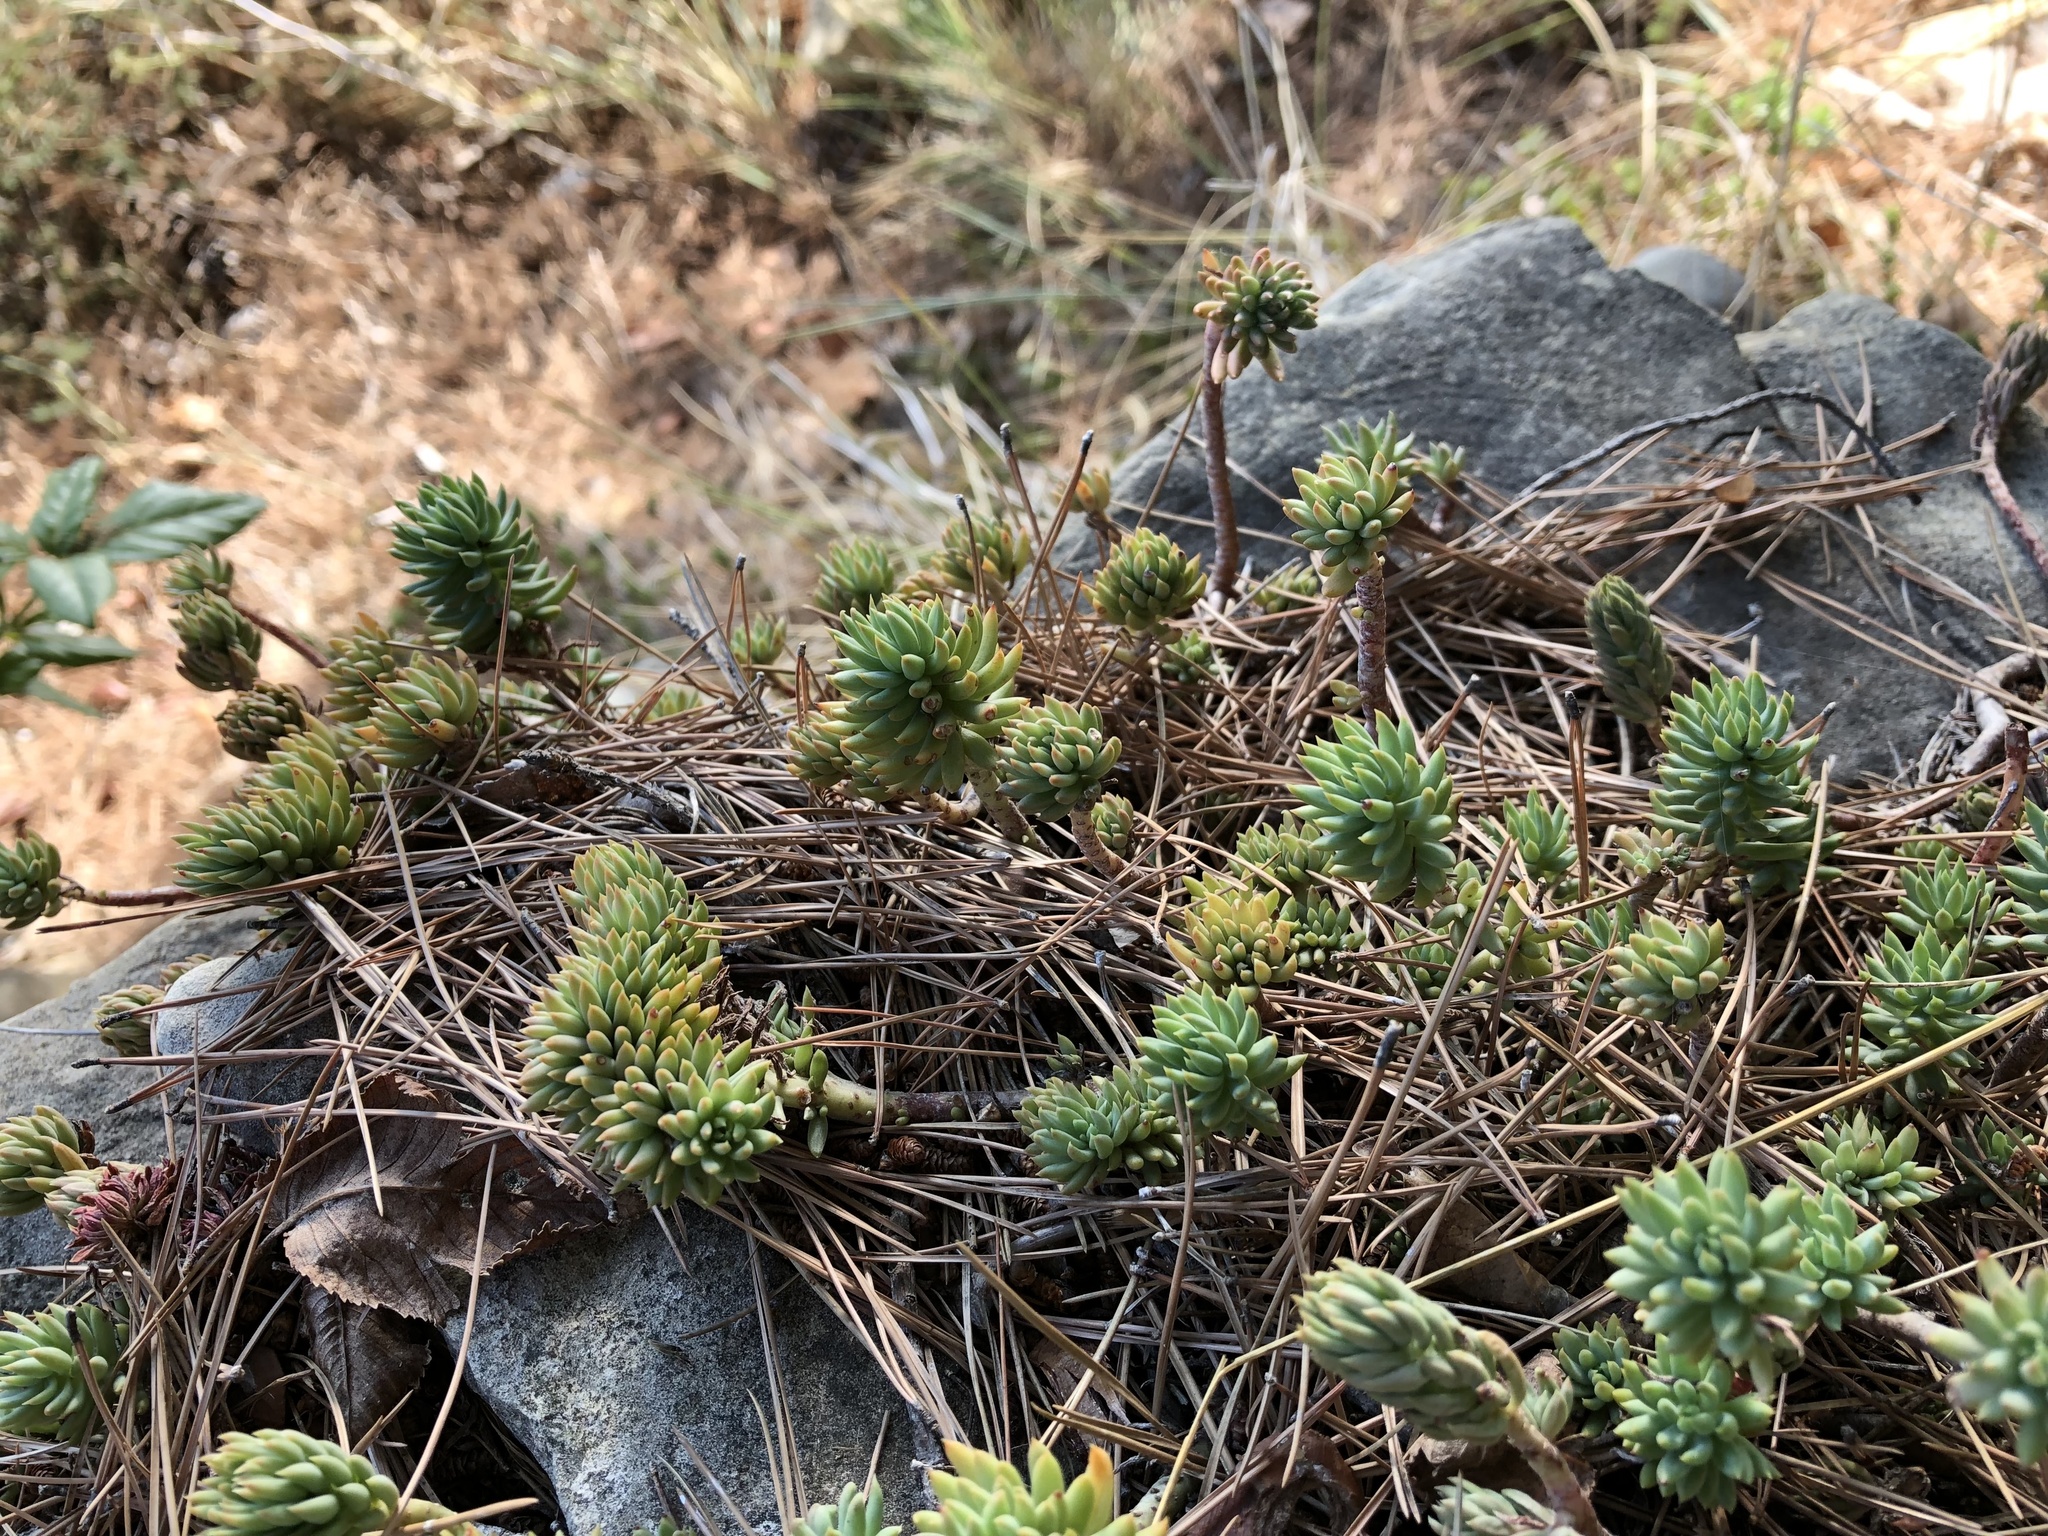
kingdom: Plantae
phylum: Tracheophyta
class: Magnoliopsida
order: Saxifragales
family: Crassulaceae
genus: Petrosedum
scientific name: Petrosedum sediforme
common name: Pale stonecrop
